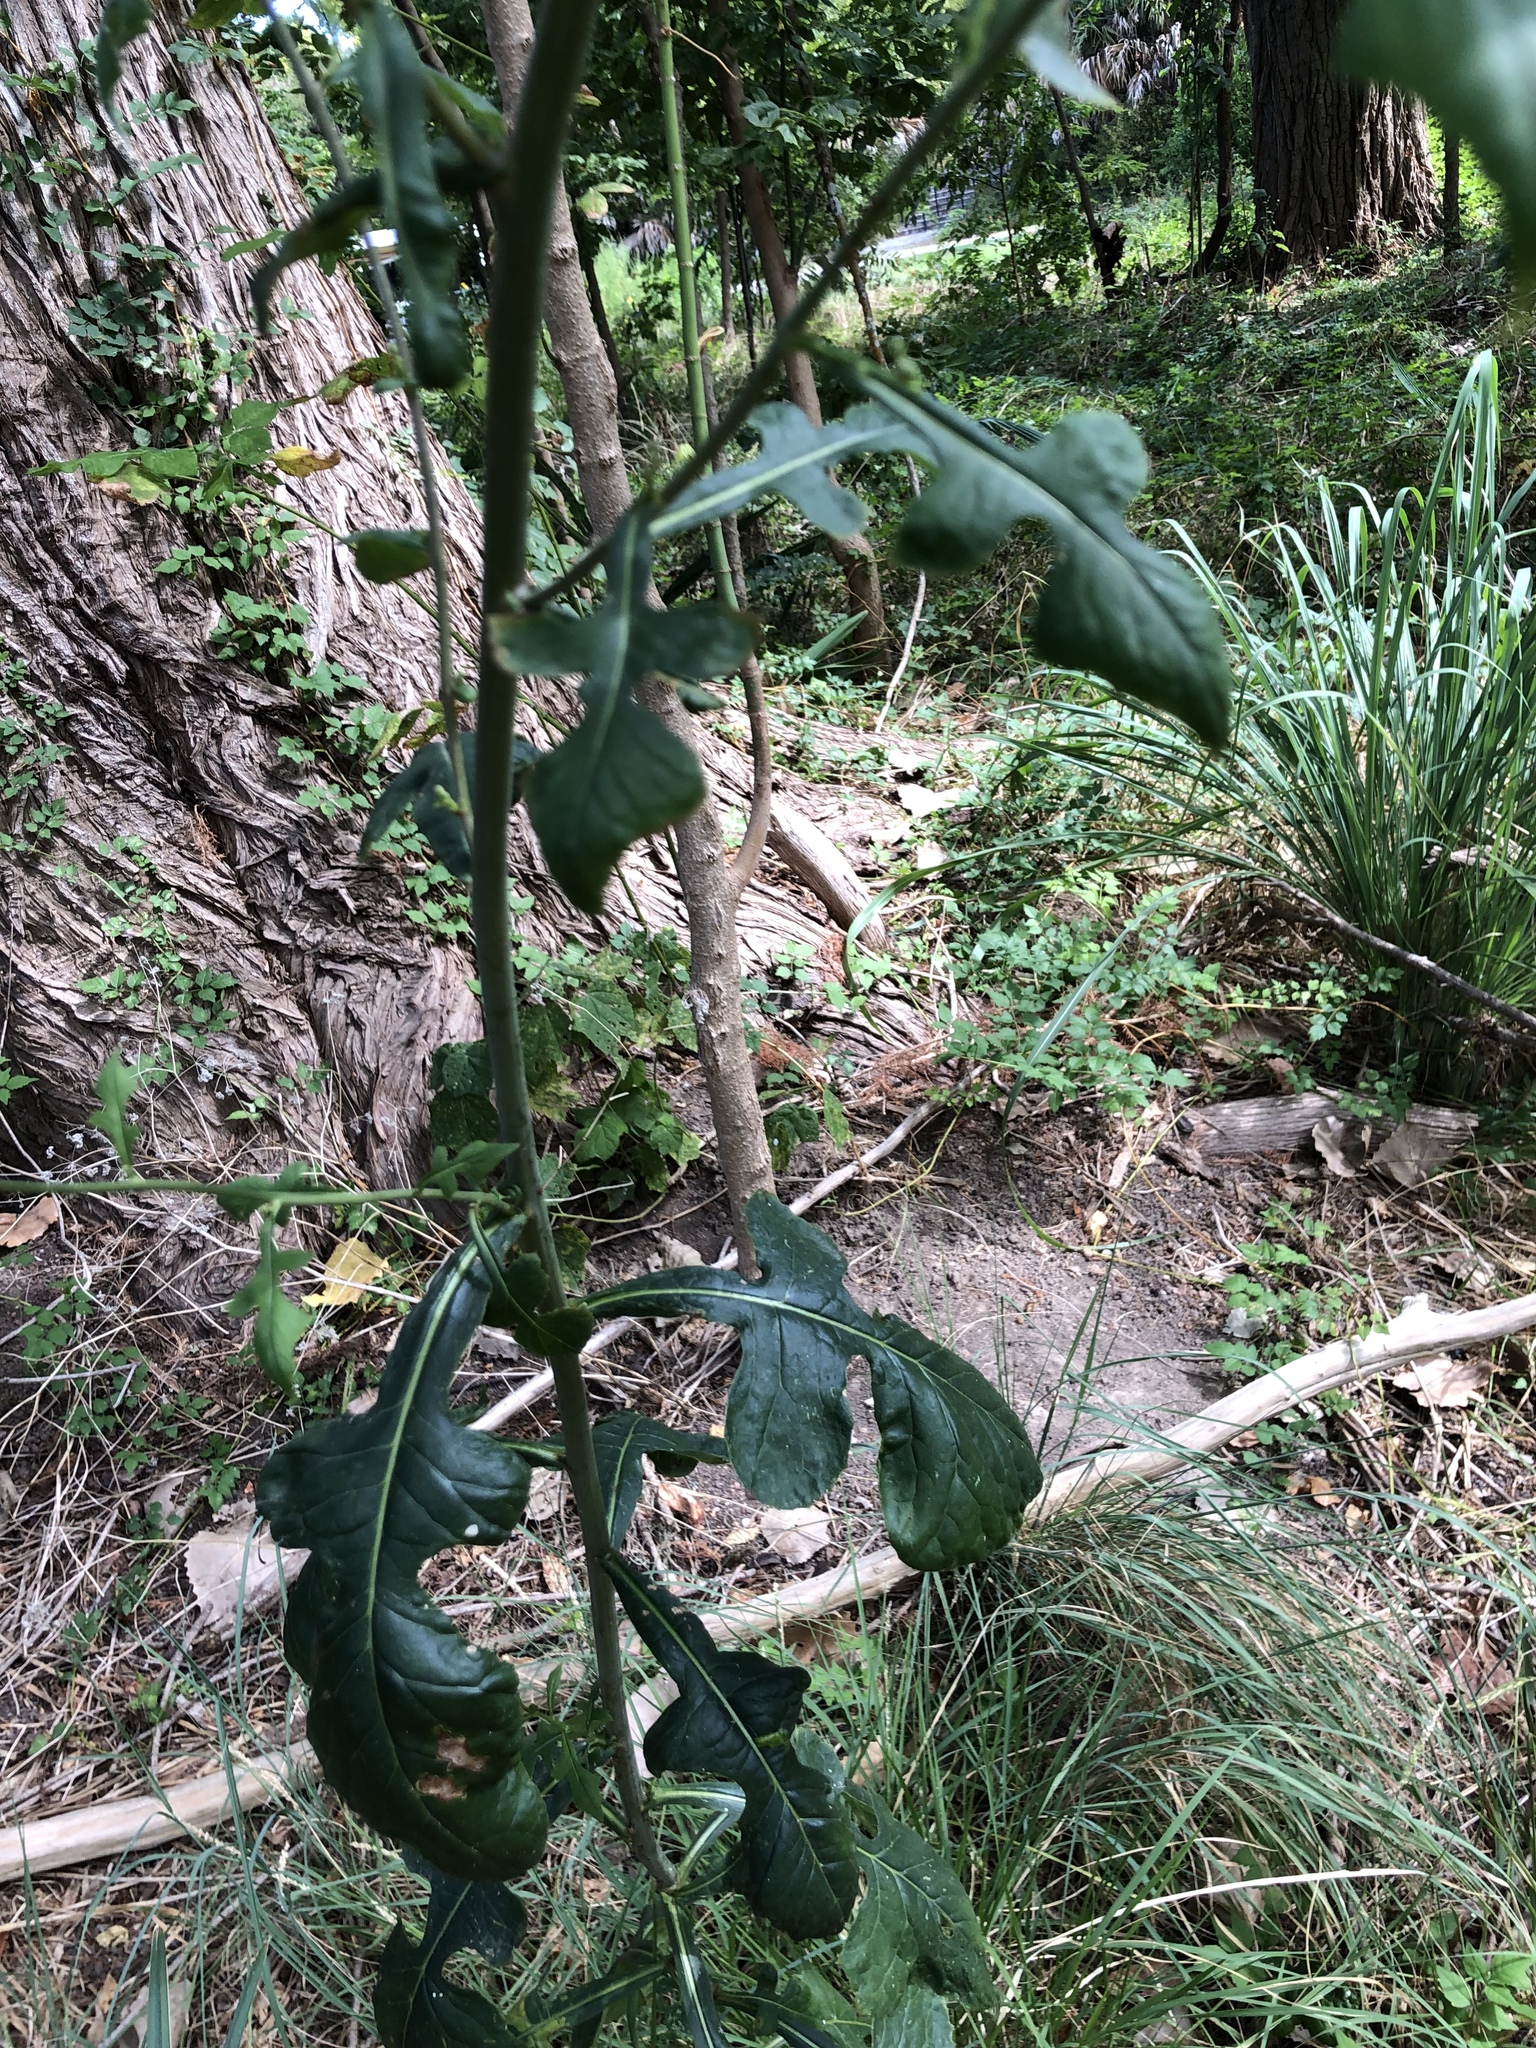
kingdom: Plantae
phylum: Tracheophyta
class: Magnoliopsida
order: Asterales
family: Asteraceae
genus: Lactuca
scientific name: Lactuca floridana
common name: Woodland lettuce
